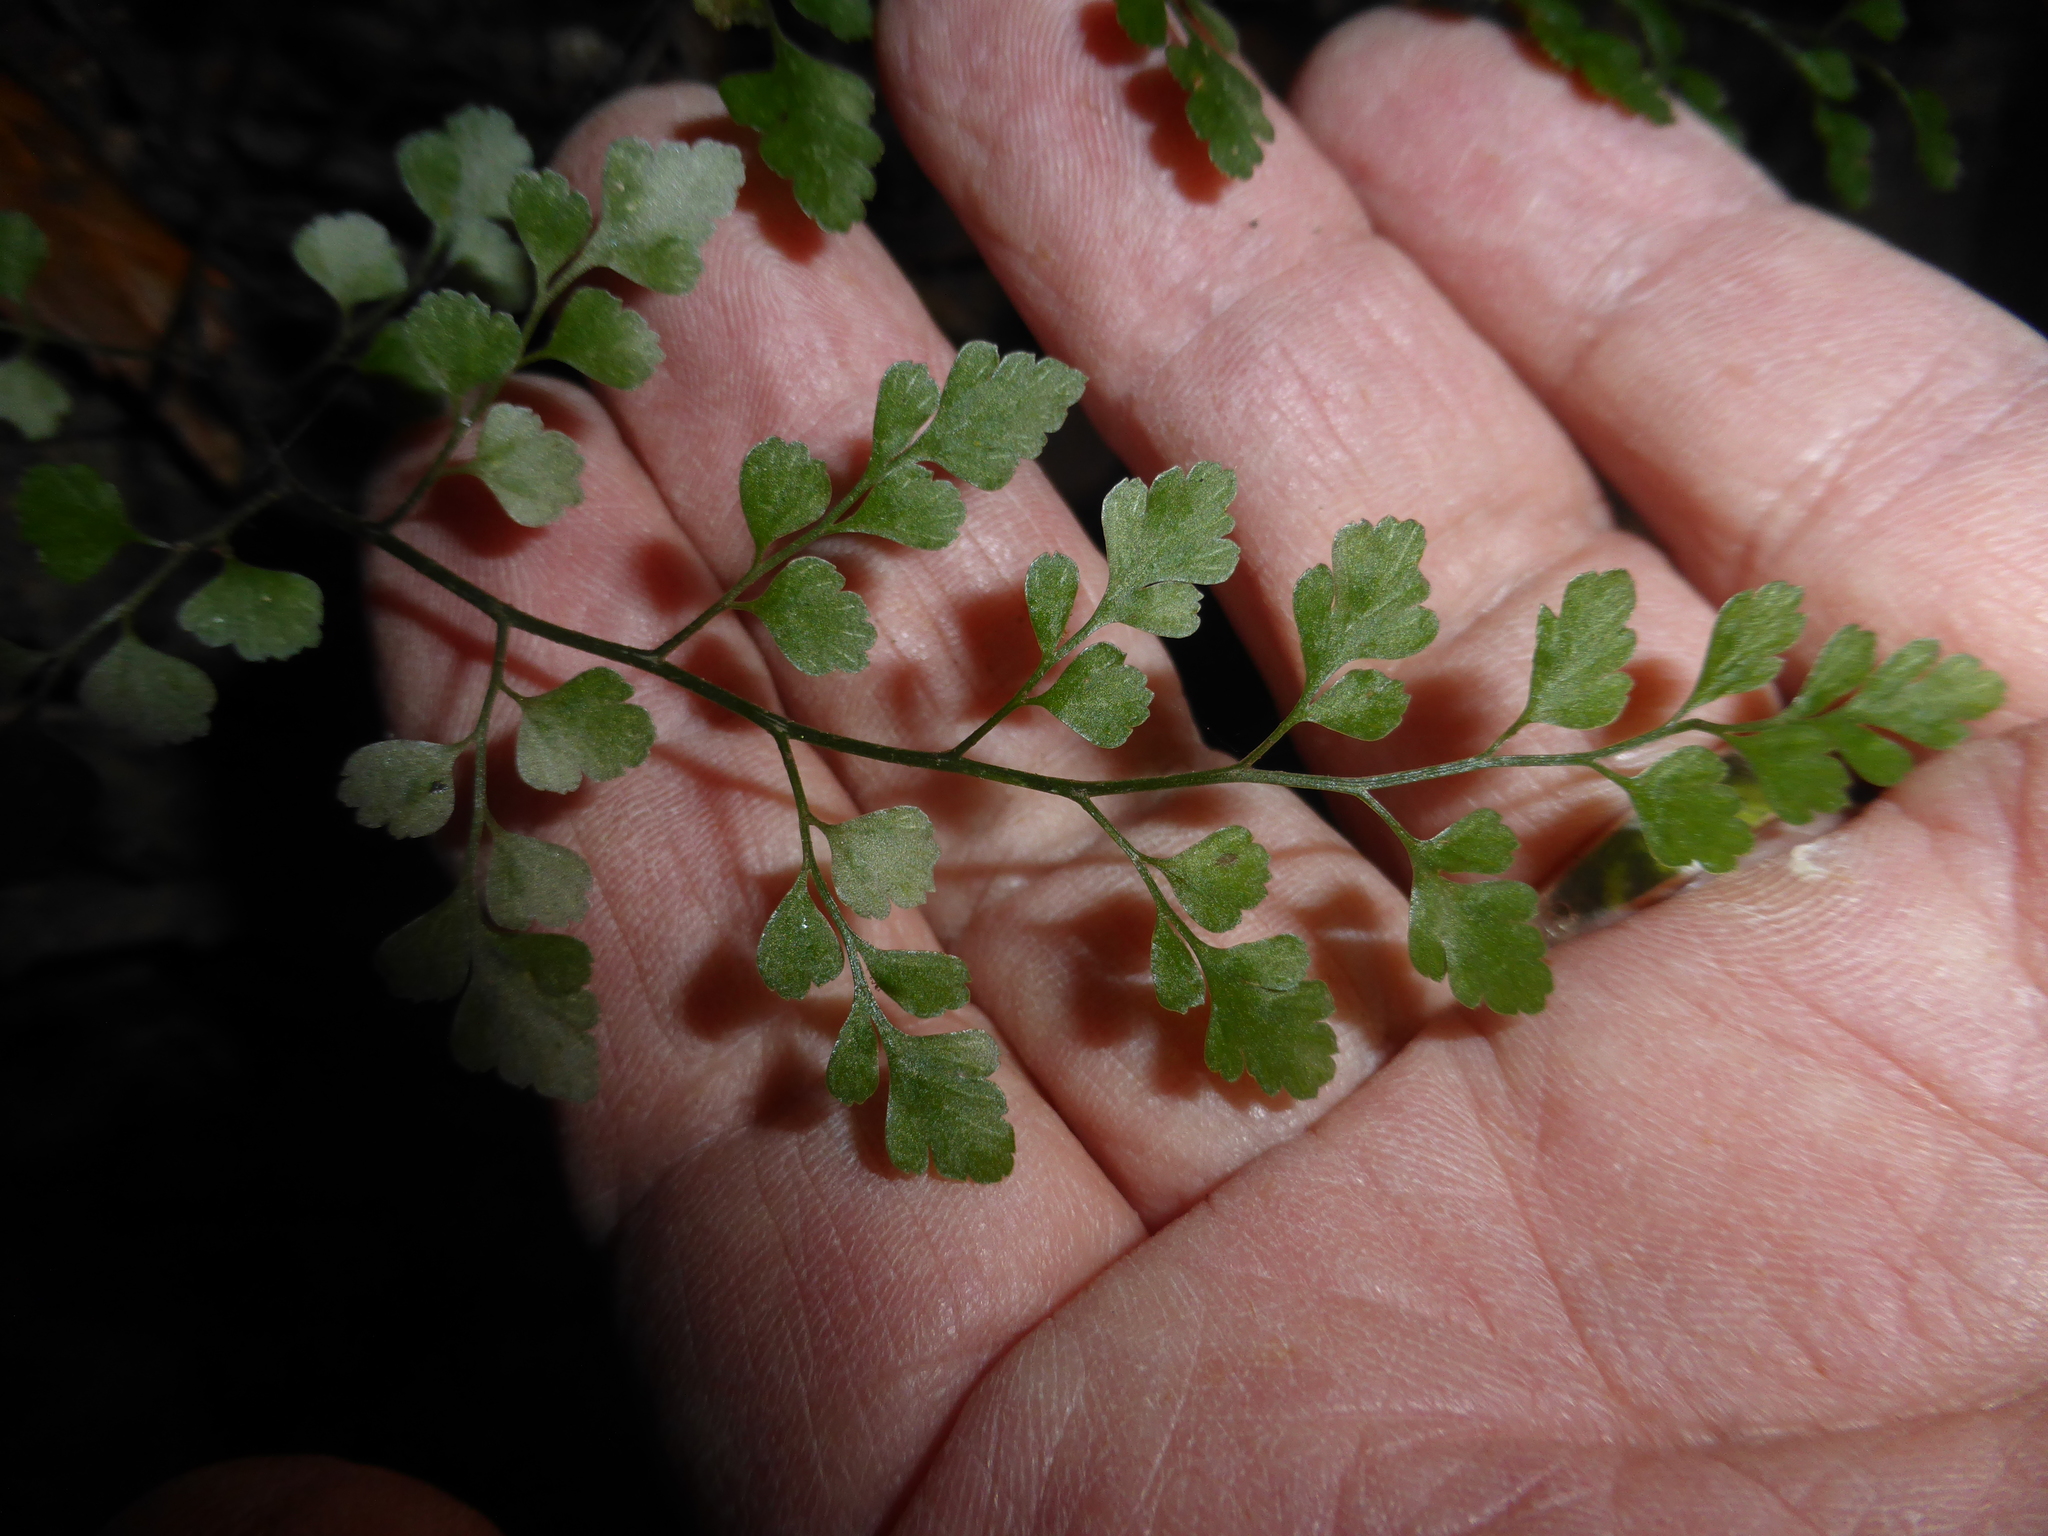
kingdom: Plantae
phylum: Tracheophyta
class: Polypodiopsida
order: Polypodiales
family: Aspleniaceae
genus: Asplenium
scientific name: Asplenium hookerianum
